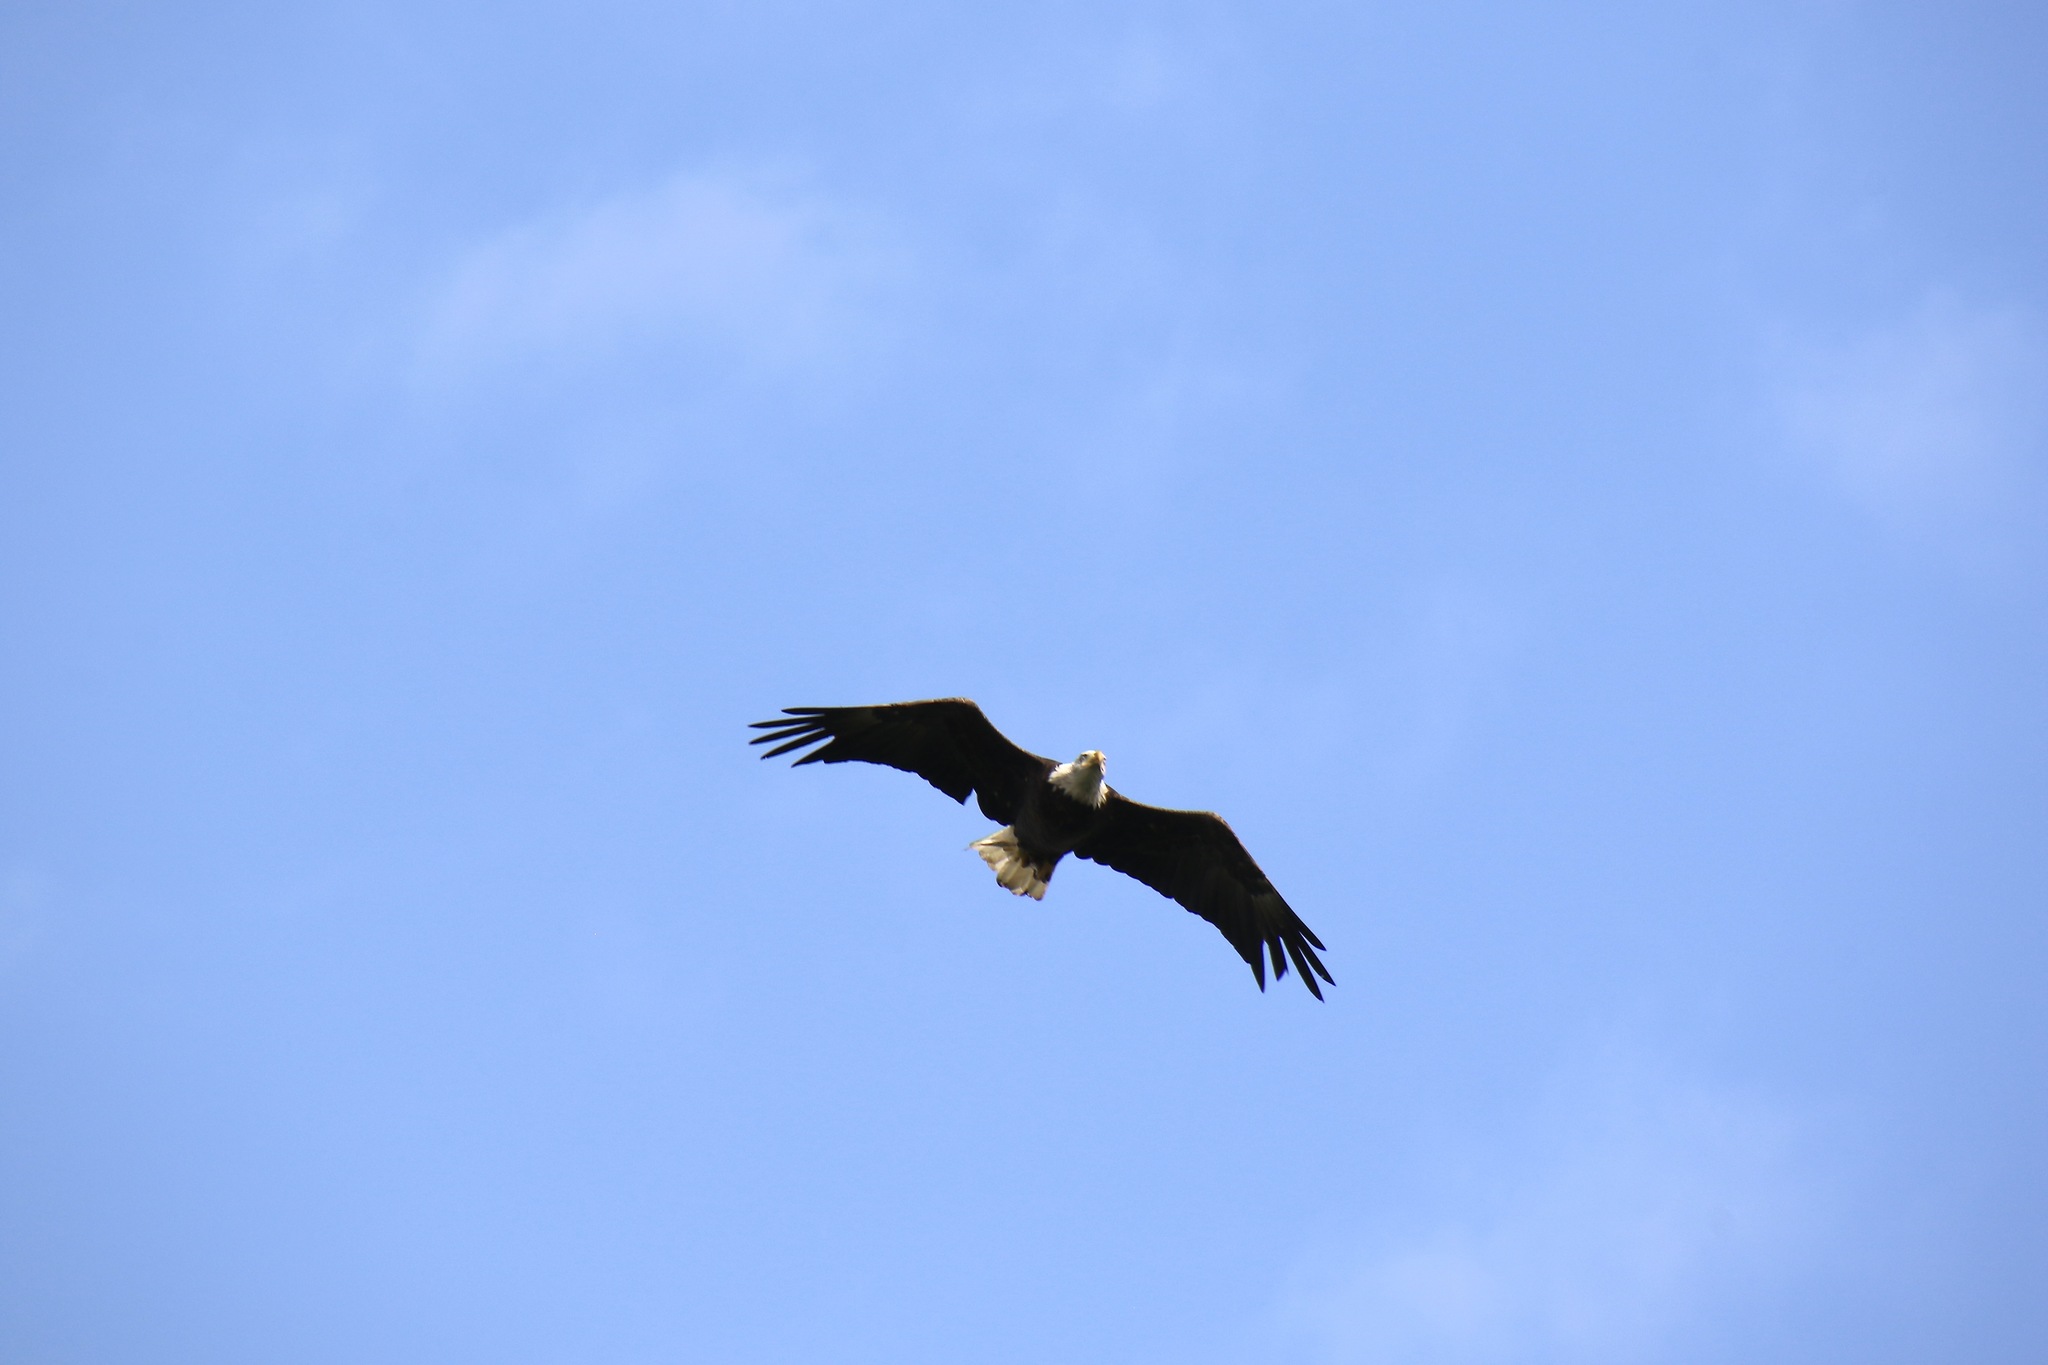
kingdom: Animalia
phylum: Chordata
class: Aves
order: Accipitriformes
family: Accipitridae
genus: Haliaeetus
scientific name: Haliaeetus leucocephalus
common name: Bald eagle
